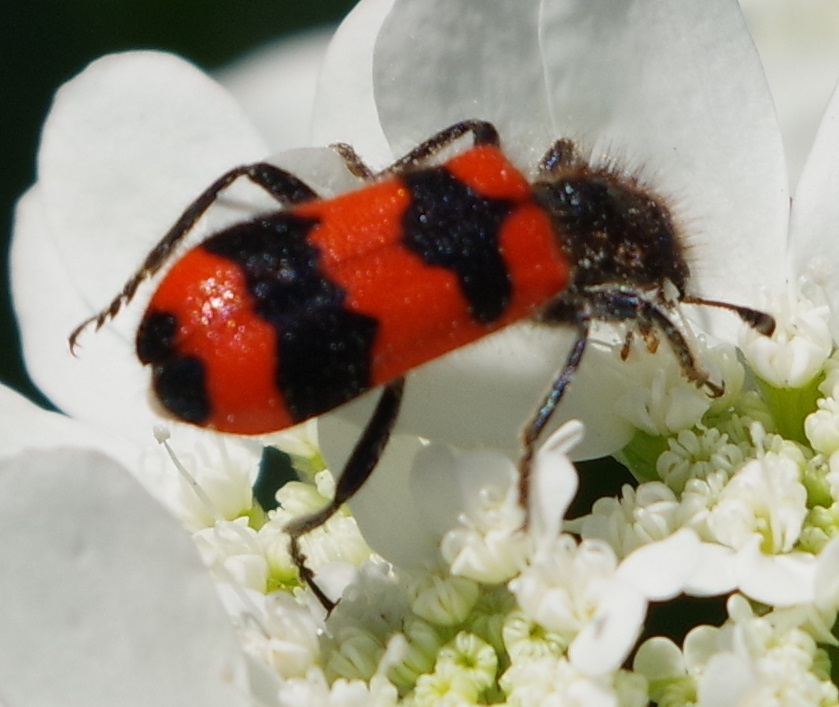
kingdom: Animalia
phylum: Arthropoda
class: Insecta
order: Coleoptera
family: Cleridae
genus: Trichodes
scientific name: Trichodes apiarius
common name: Bee-eating beetle
